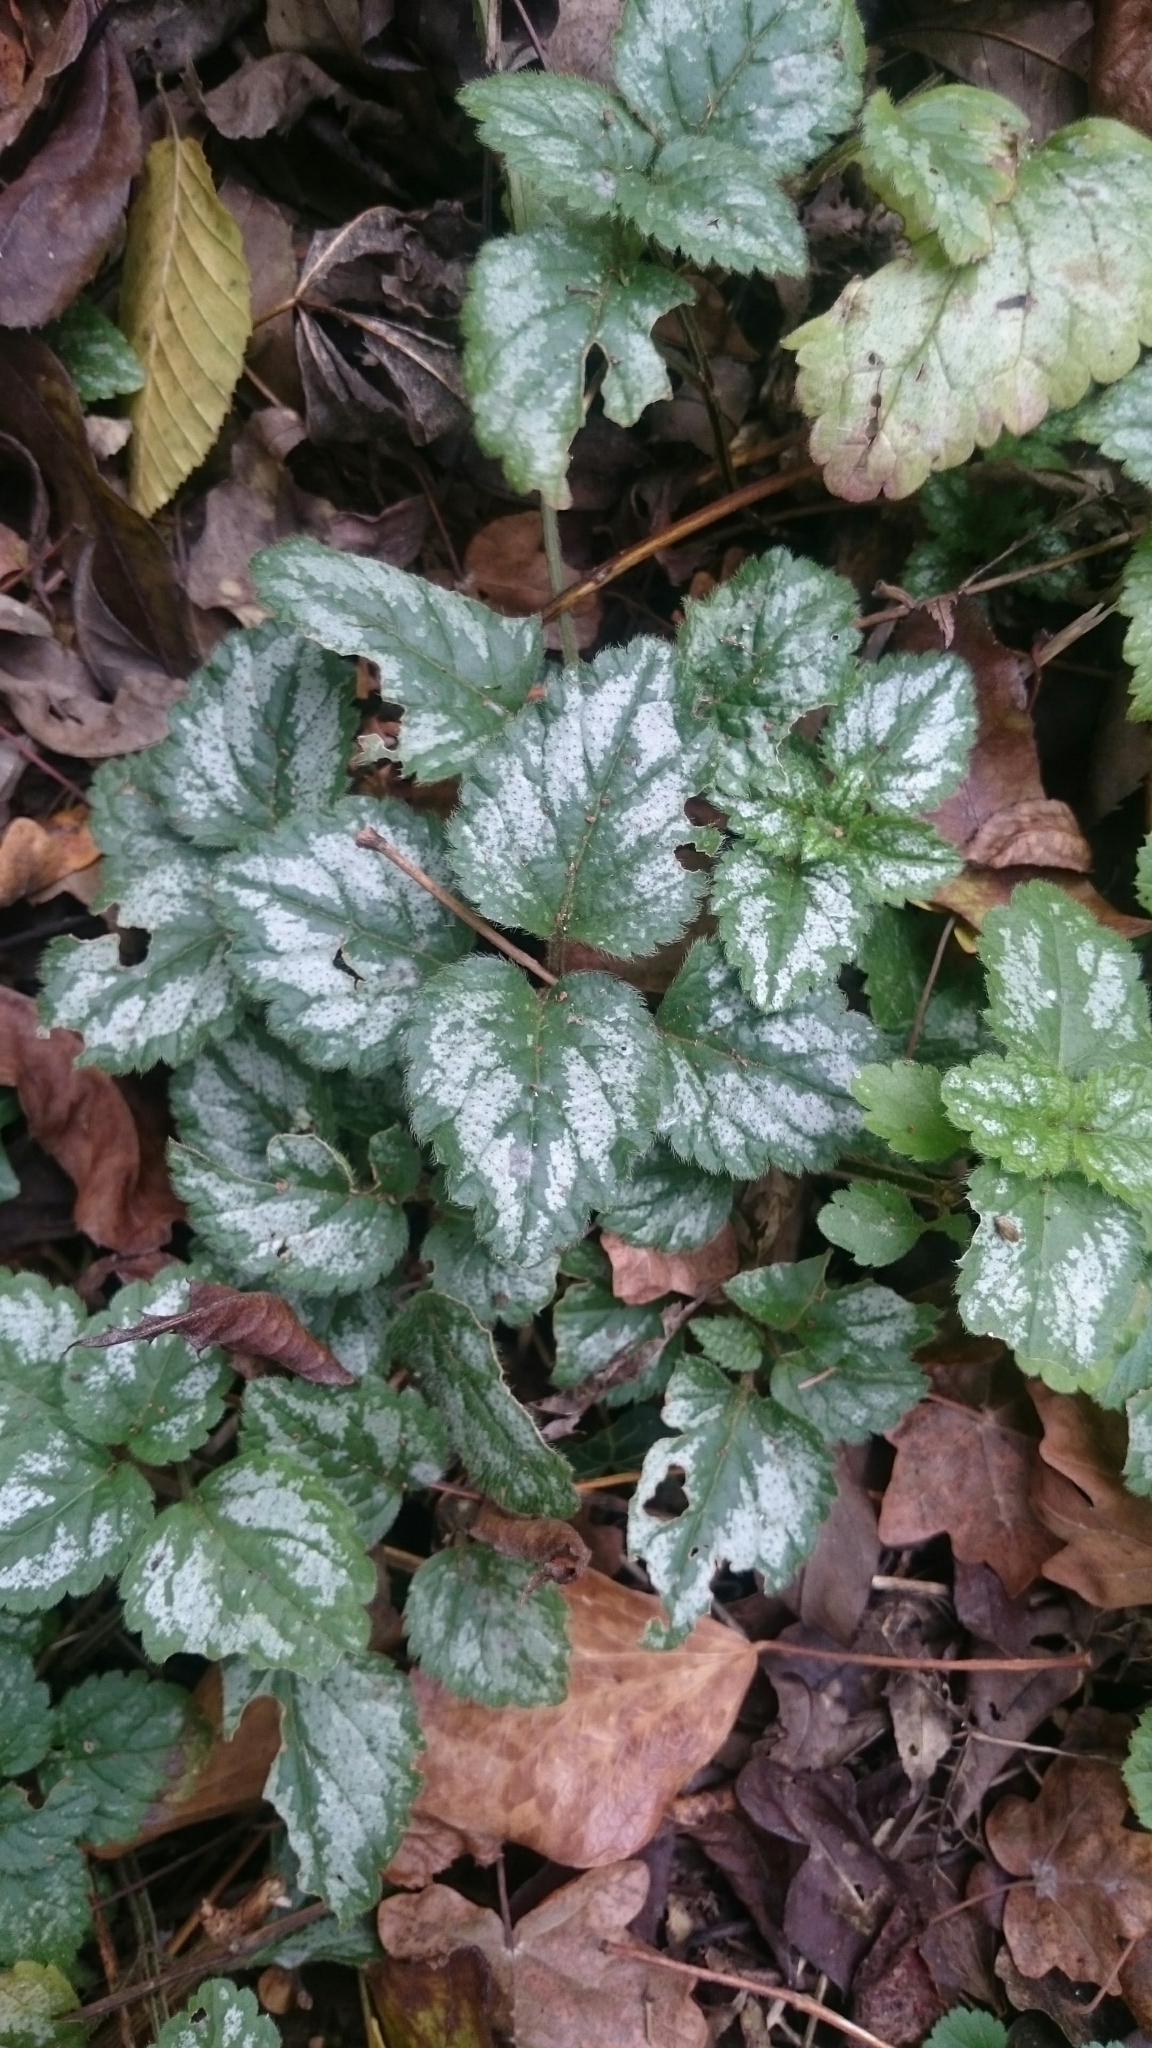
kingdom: Plantae
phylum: Tracheophyta
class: Magnoliopsida
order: Lamiales
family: Lamiaceae
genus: Lamium
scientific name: Lamium galeobdolon
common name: Yellow archangel
